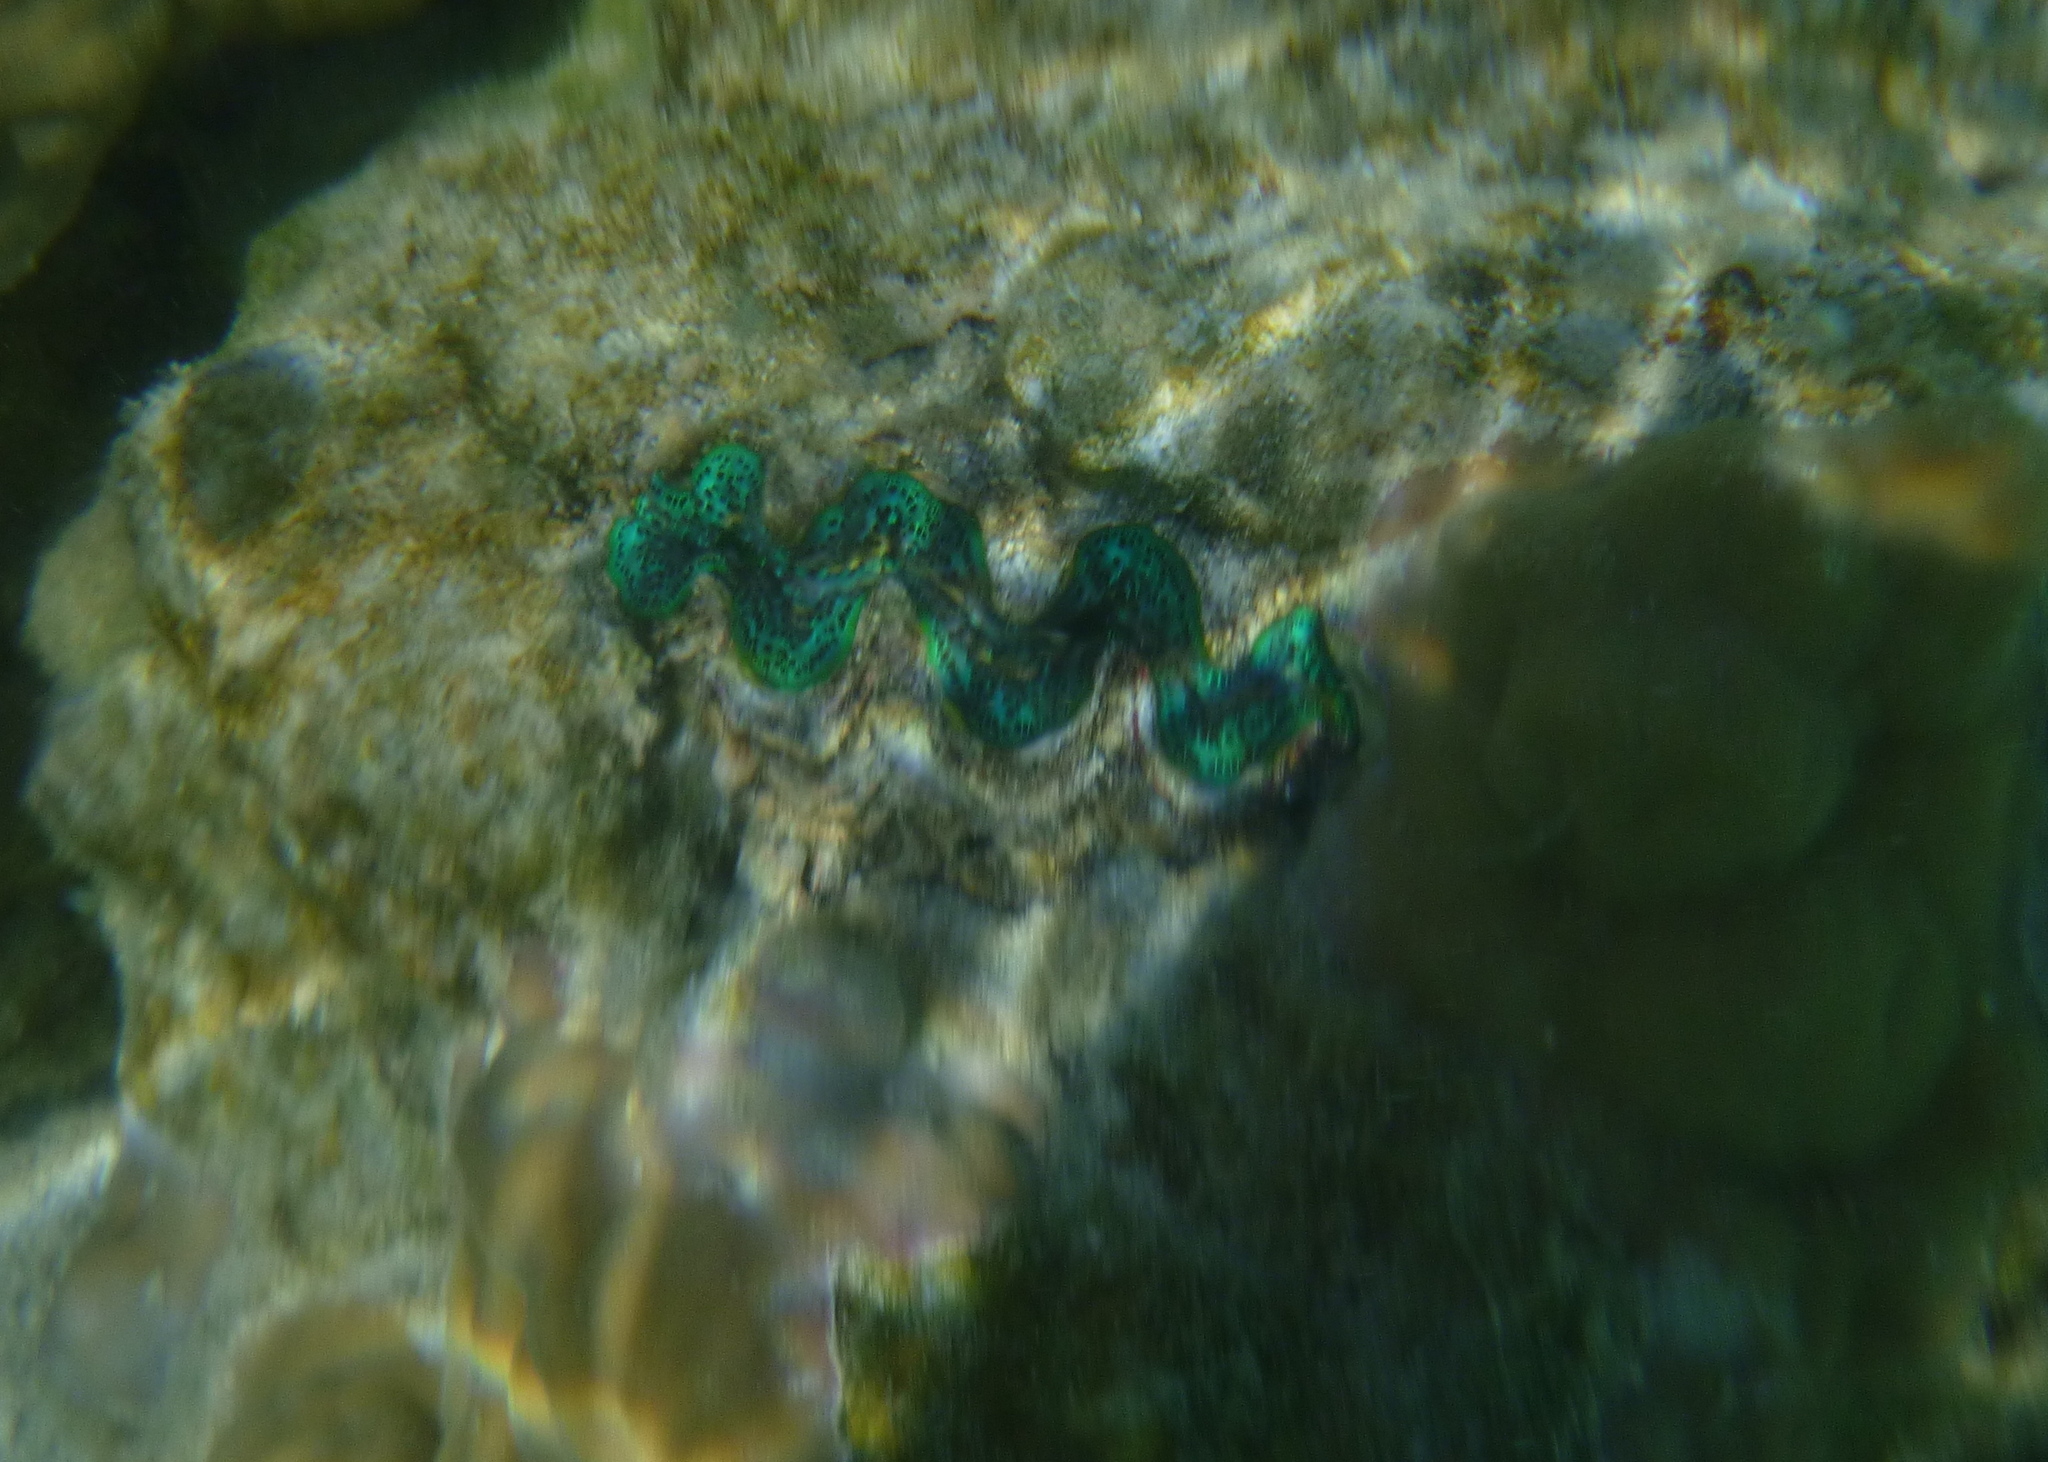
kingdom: Animalia
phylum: Mollusca
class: Bivalvia
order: Cardiida
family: Cardiidae
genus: Tridacna
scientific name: Tridacna maxima
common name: Small giant clam
